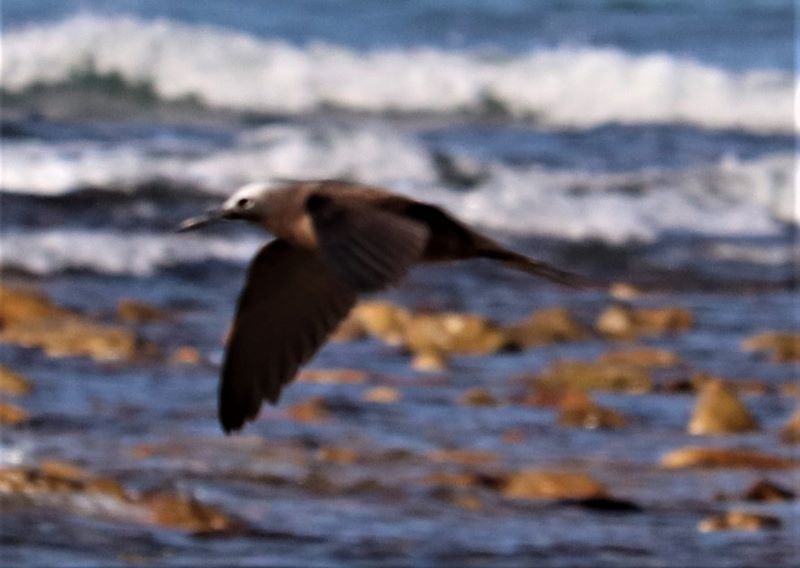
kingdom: Animalia
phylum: Chordata
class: Aves
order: Charadriiformes
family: Laridae
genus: Anous
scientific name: Anous tenuirostris
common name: Lesser noddy
